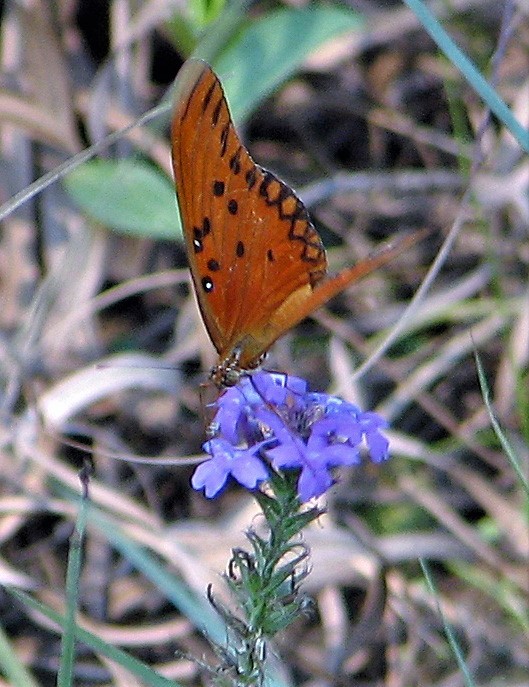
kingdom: Animalia
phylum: Arthropoda
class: Insecta
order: Lepidoptera
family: Nymphalidae
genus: Dione
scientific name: Dione vanillae
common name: Gulf fritillary
